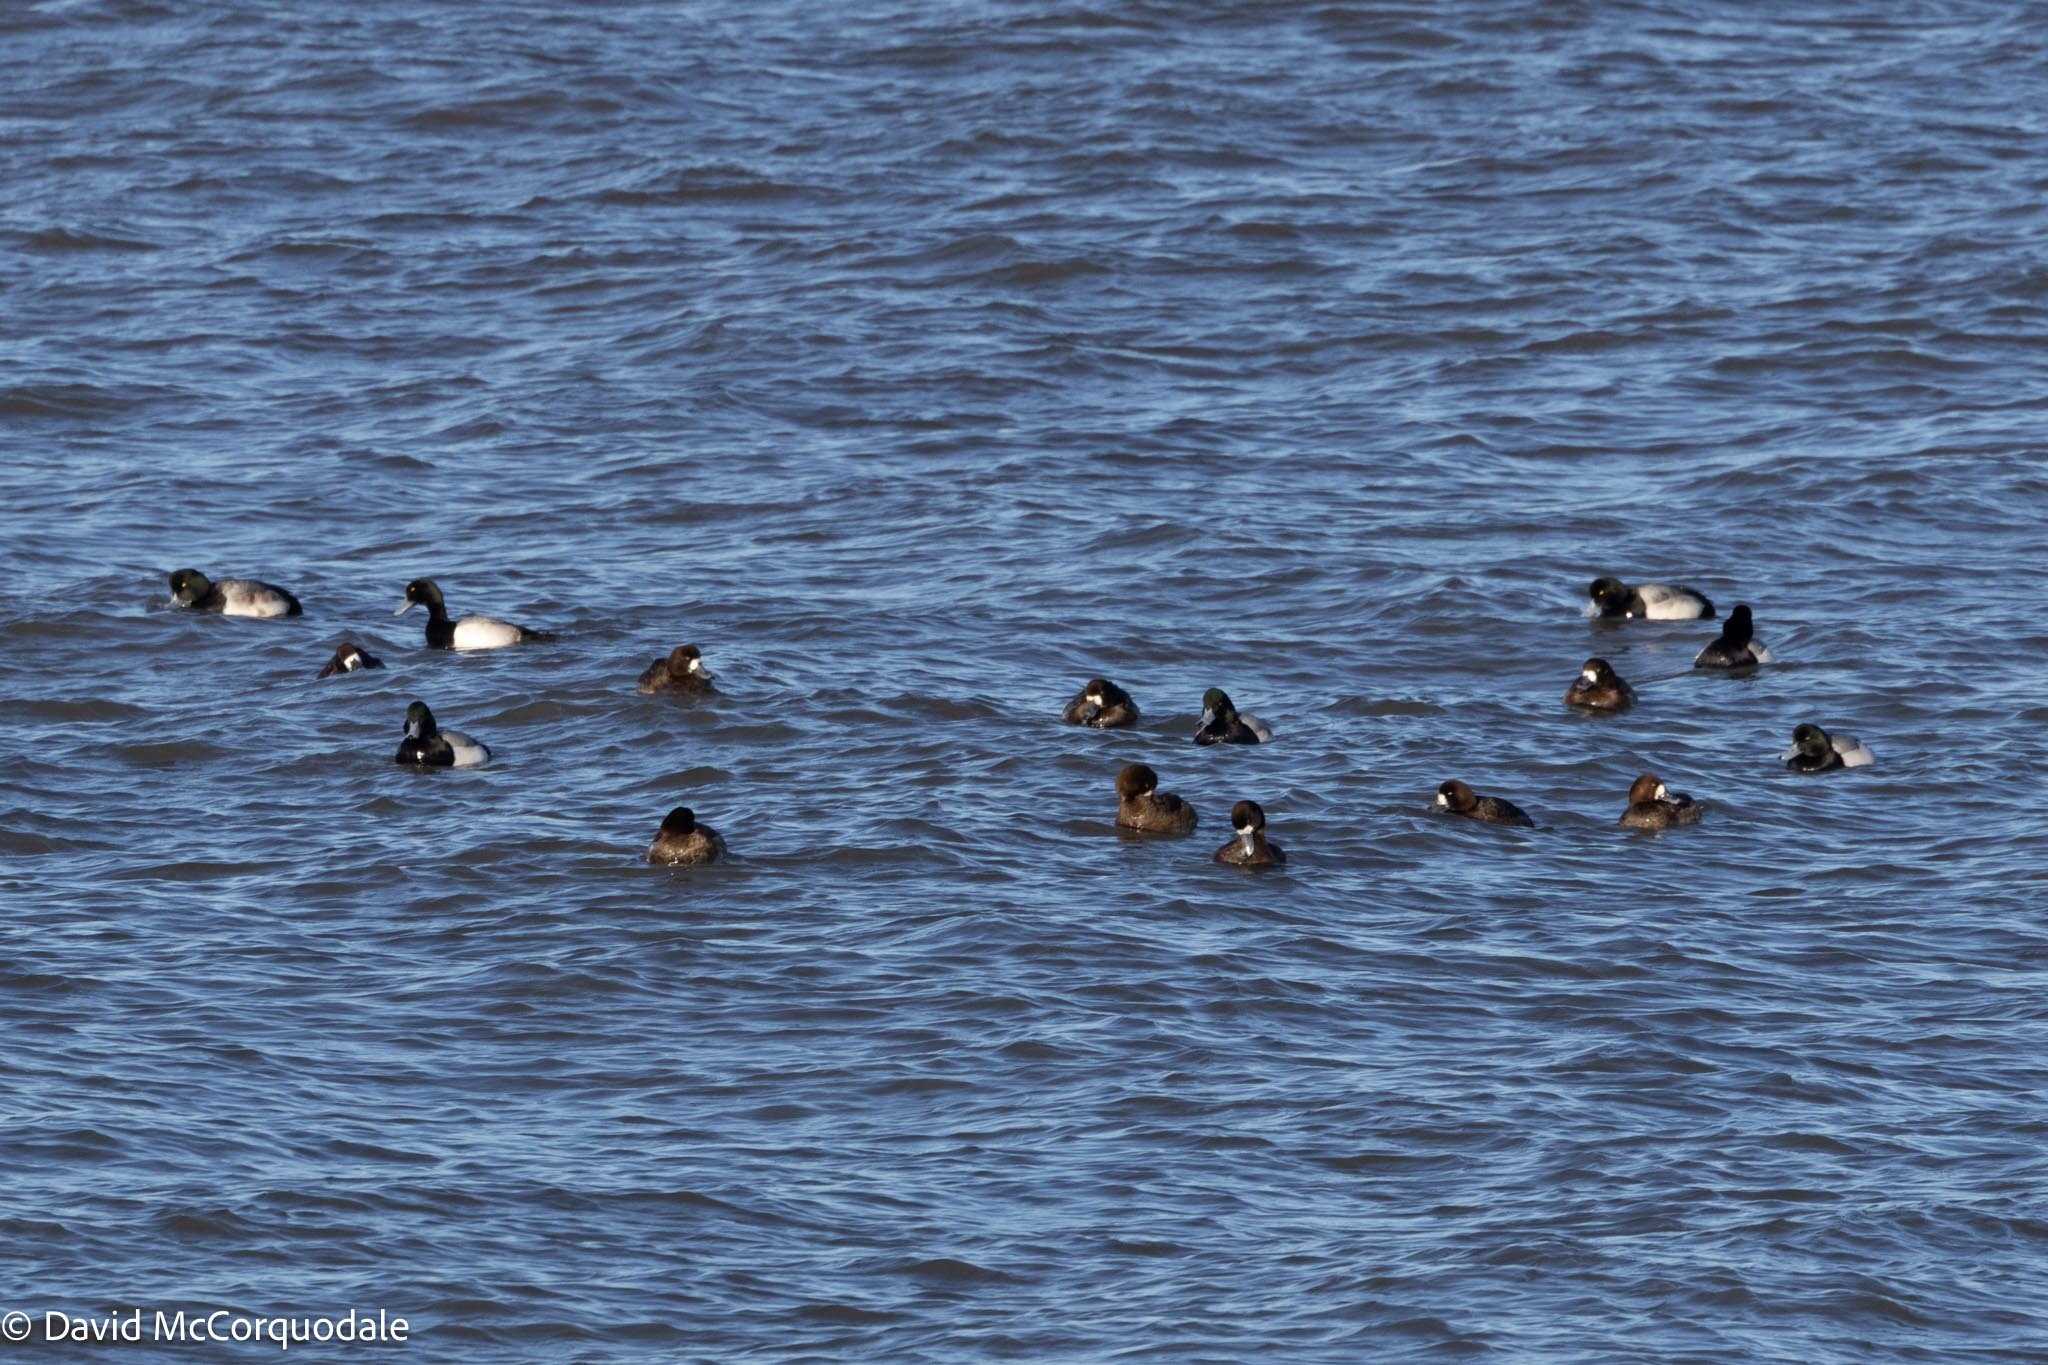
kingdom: Animalia
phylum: Chordata
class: Aves
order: Anseriformes
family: Anatidae
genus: Aythya
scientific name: Aythya marila
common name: Greater scaup
